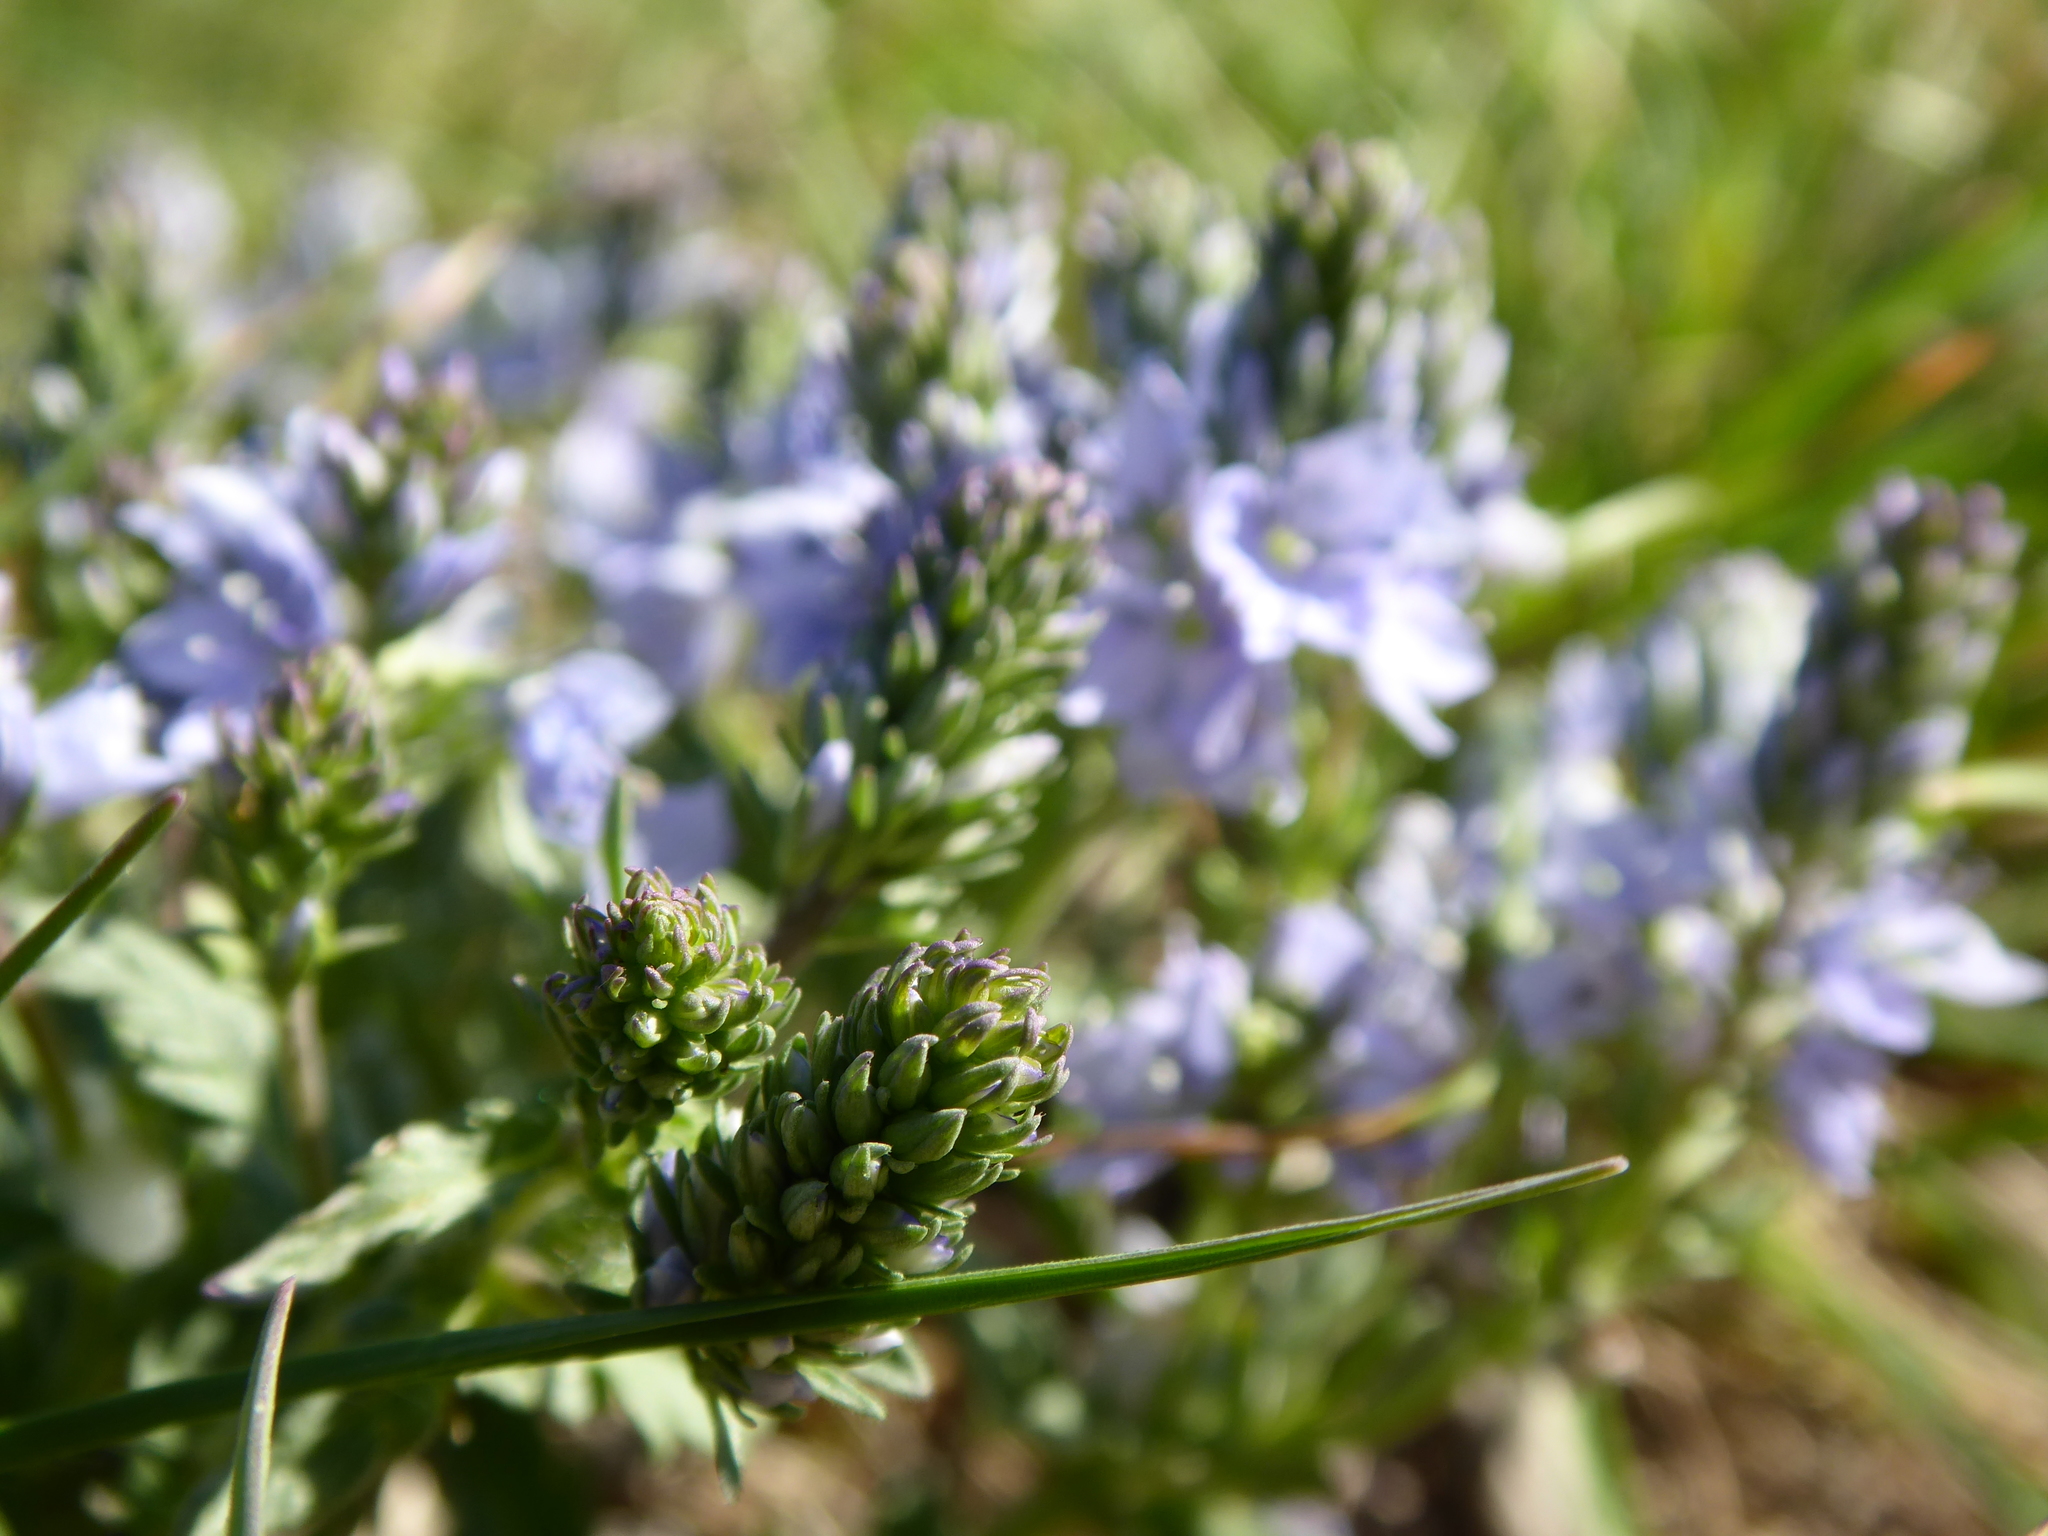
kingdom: Plantae
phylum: Tracheophyta
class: Magnoliopsida
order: Lamiales
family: Plantaginaceae
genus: Veronica
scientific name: Veronica prostrata
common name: Prostrate speedwell
